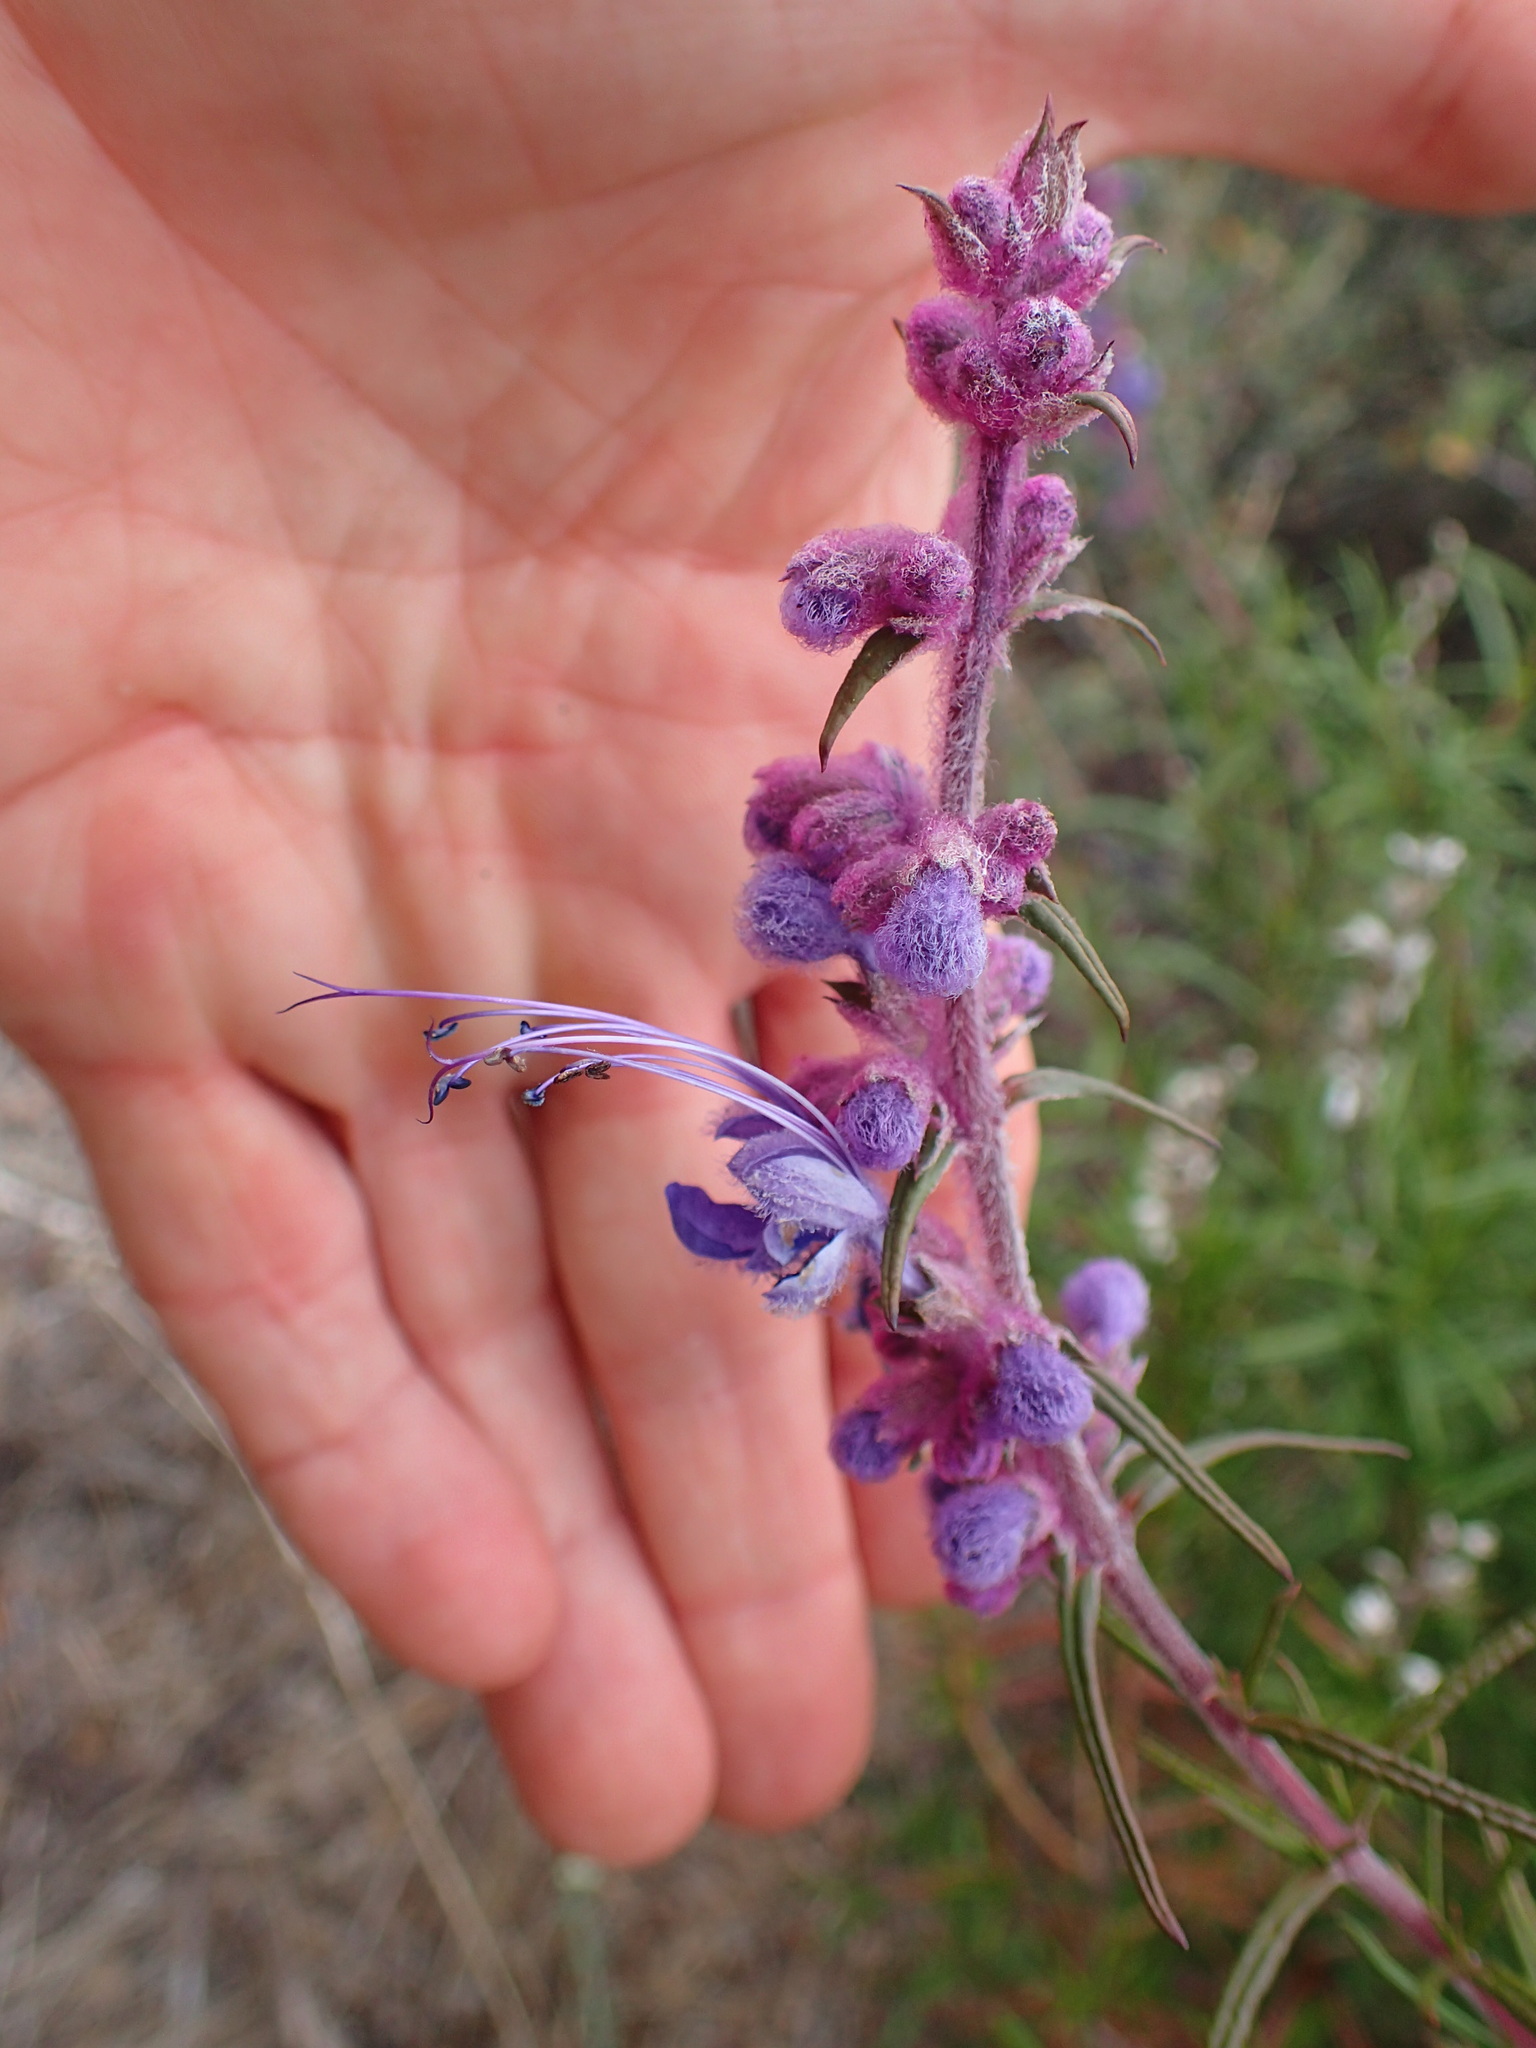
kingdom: Plantae
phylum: Tracheophyta
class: Magnoliopsida
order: Lamiales
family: Lamiaceae
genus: Trichostema
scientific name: Trichostema lanatum
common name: Woolly bluecurls
